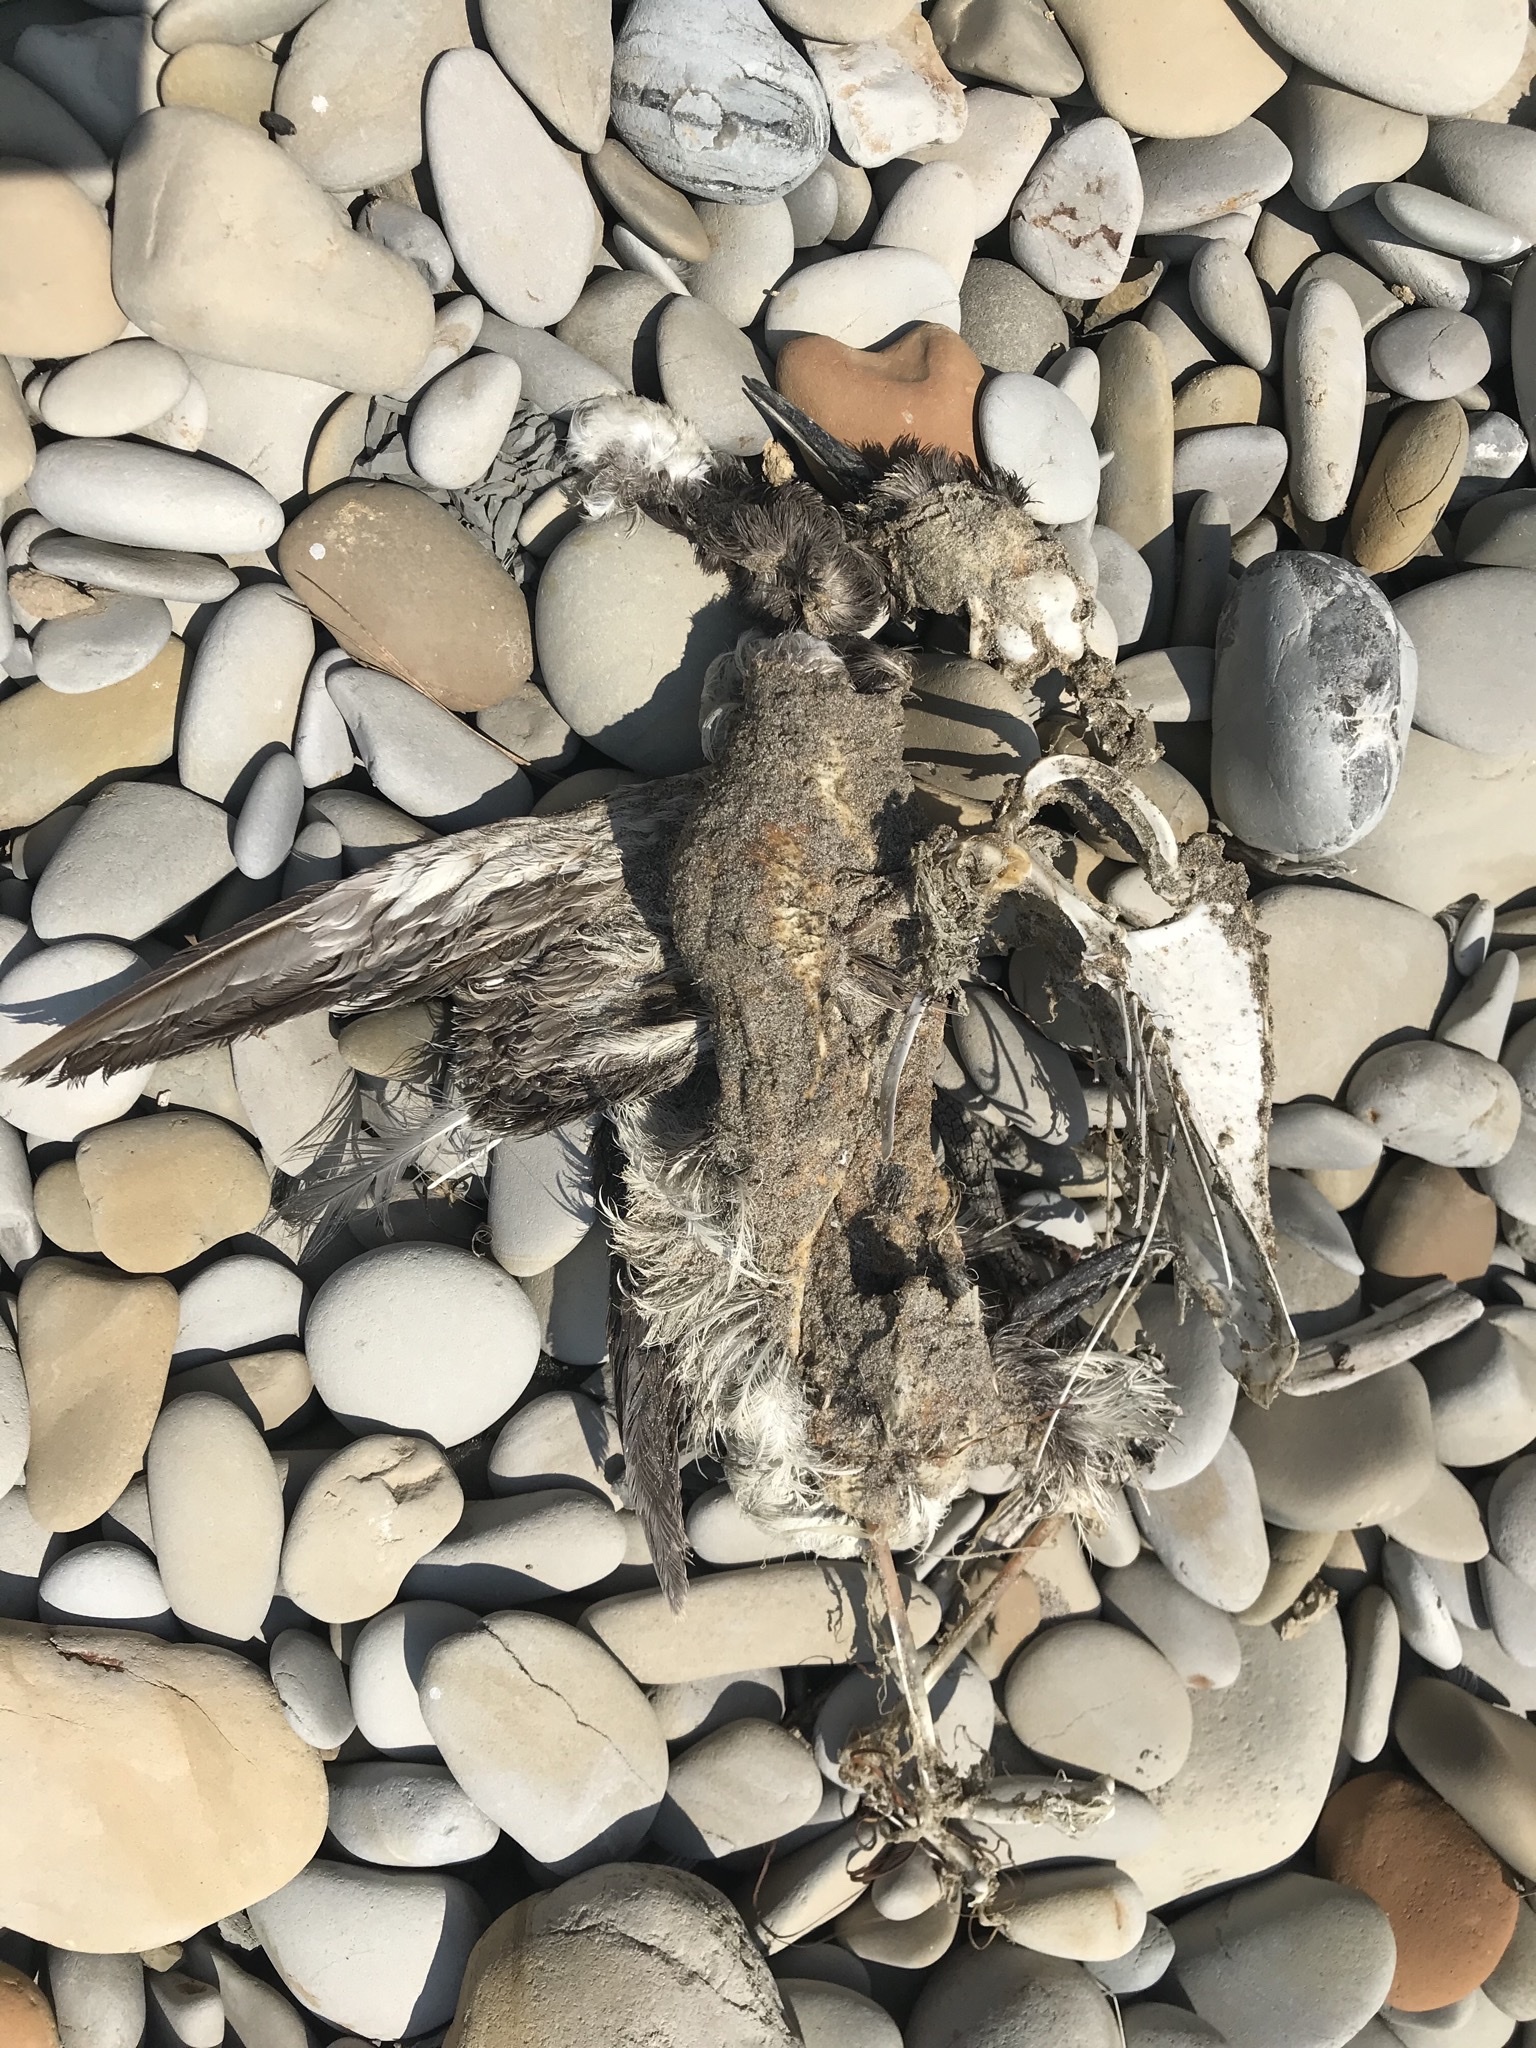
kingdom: Animalia
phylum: Chordata
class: Aves
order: Charadriiformes
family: Alcidae
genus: Uria
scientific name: Uria aalge
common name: Common murre
